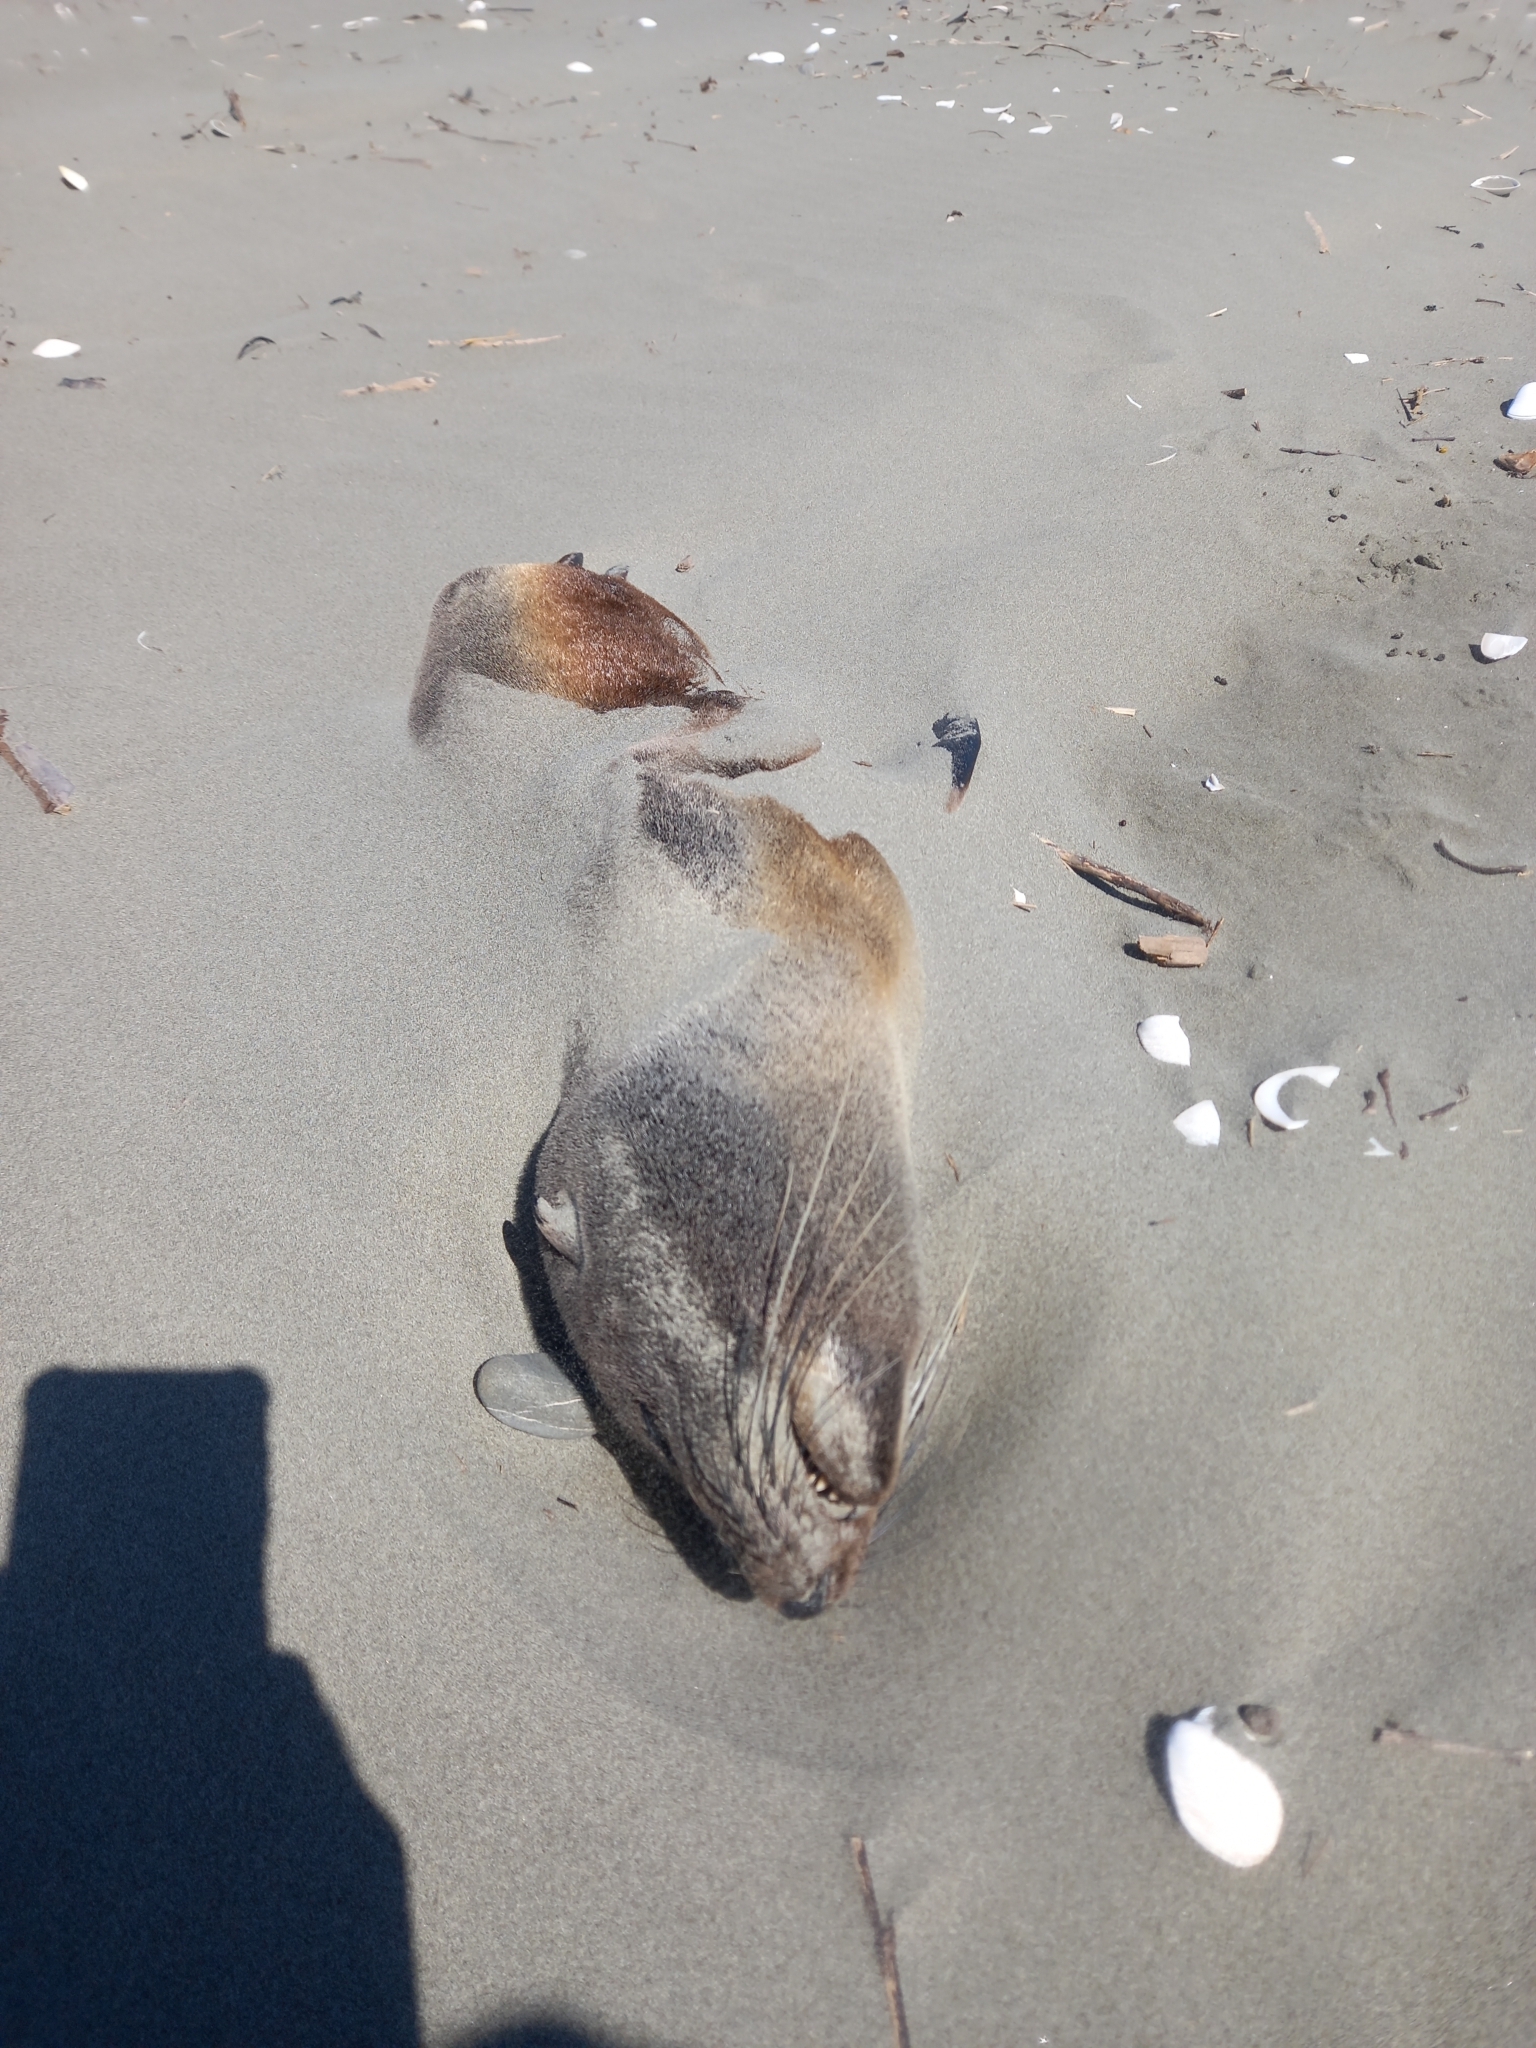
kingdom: Animalia
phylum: Chordata
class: Mammalia
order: Carnivora
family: Otariidae
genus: Arctocephalus
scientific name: Arctocephalus forsteri
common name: New zealand fur seal
